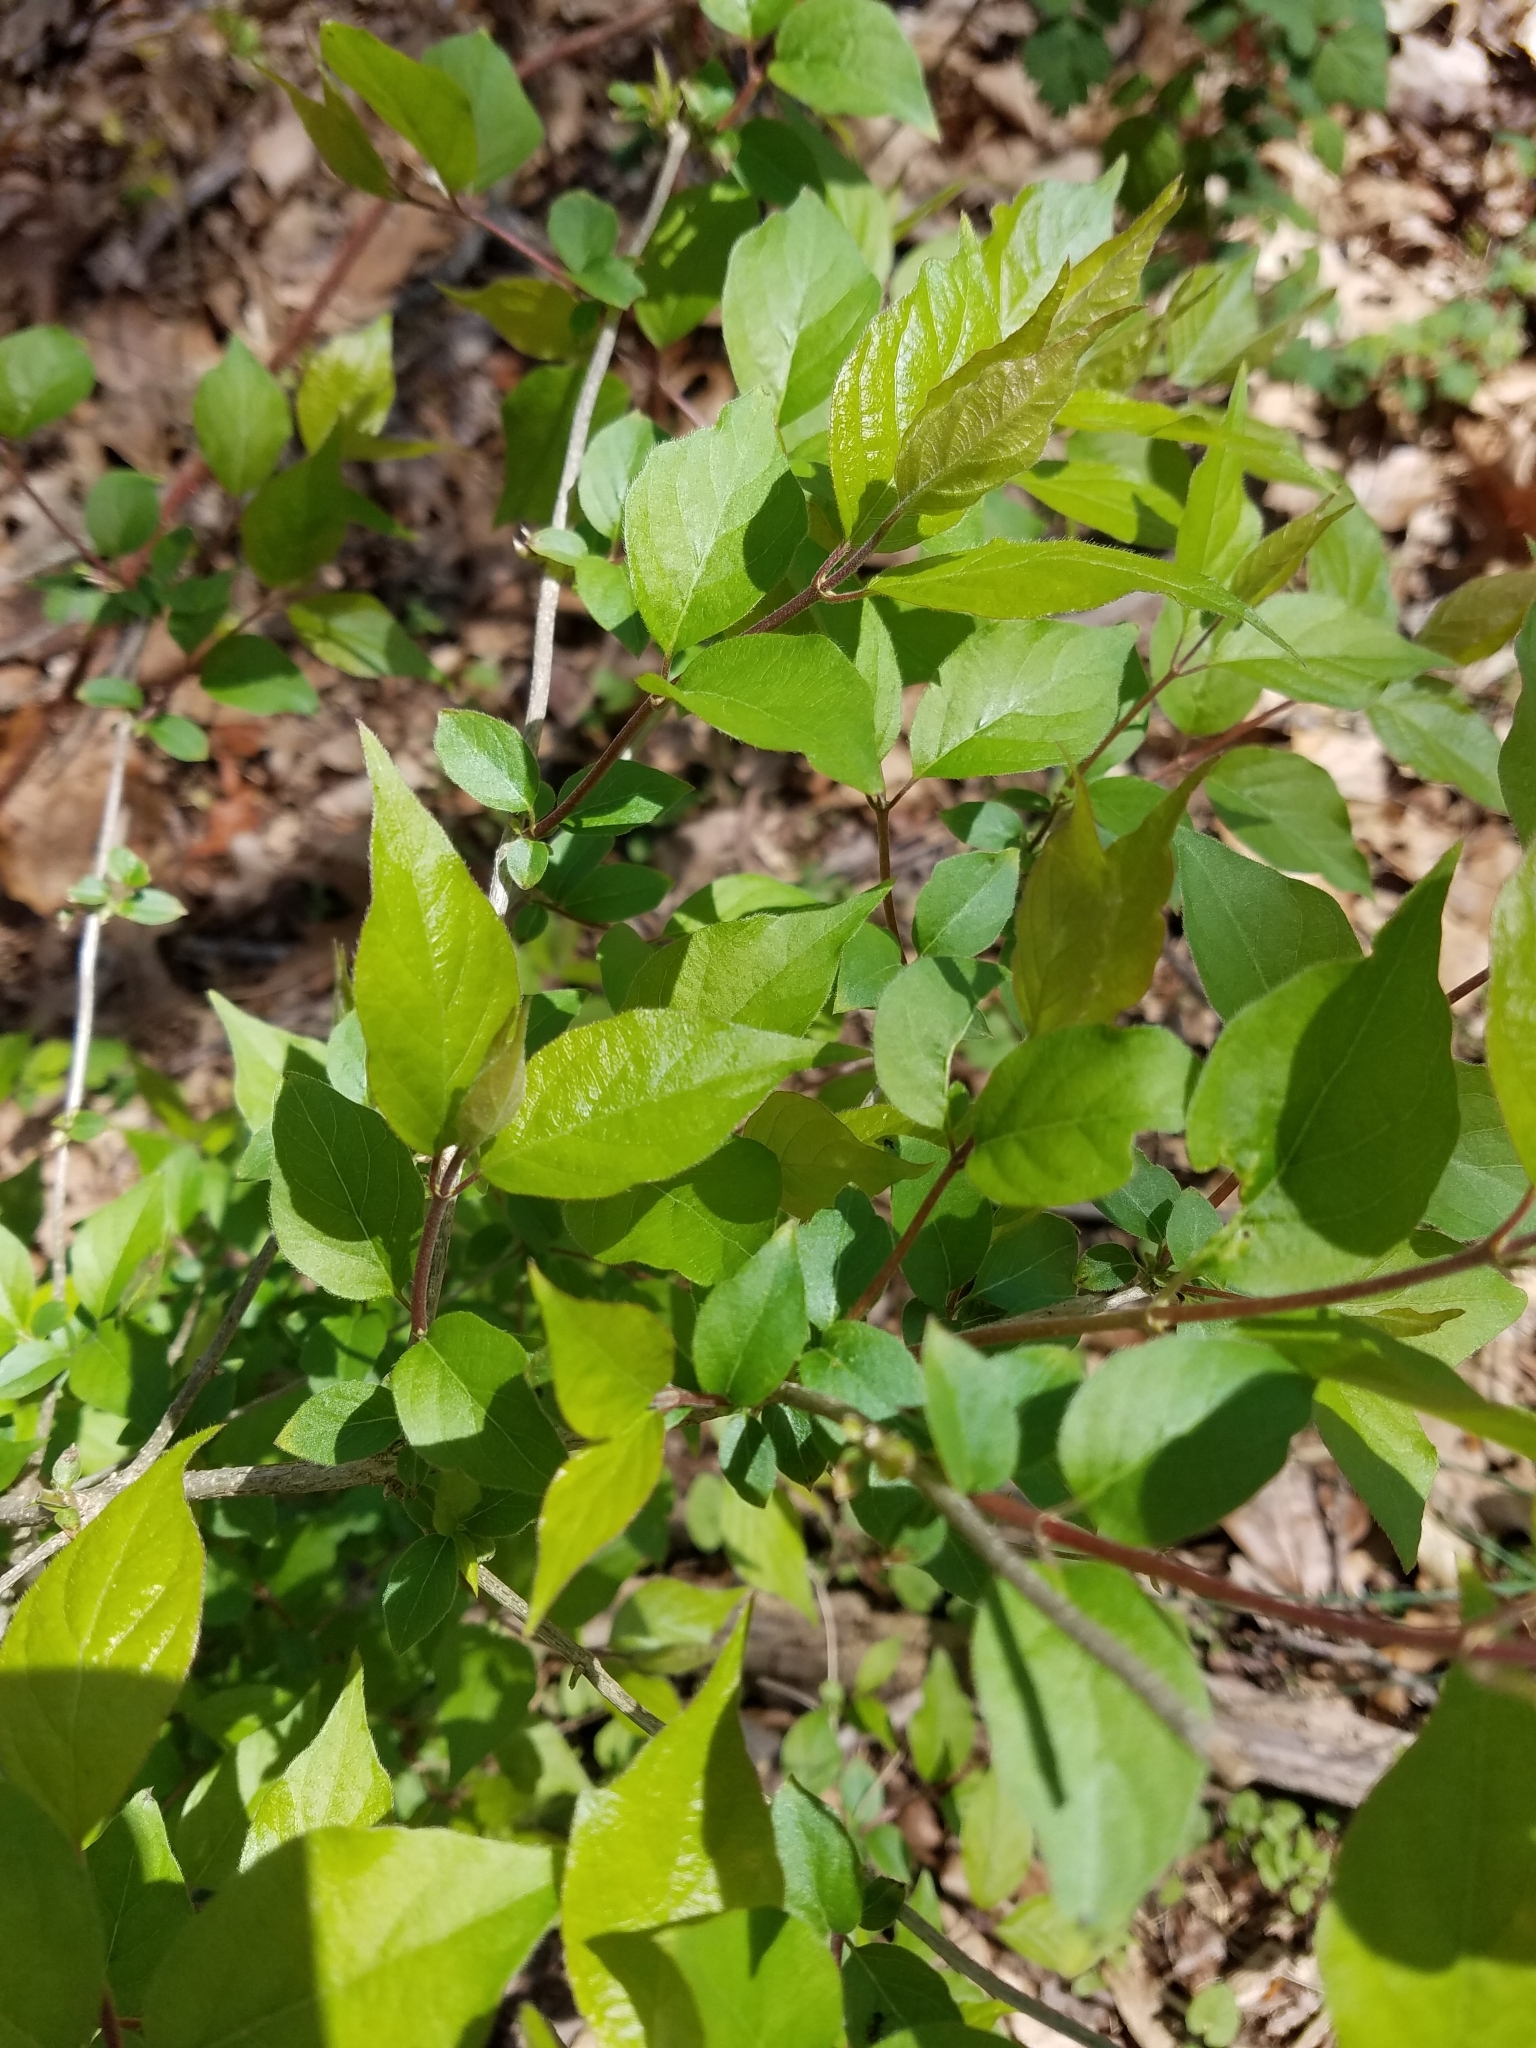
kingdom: Plantae
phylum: Tracheophyta
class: Magnoliopsida
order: Dipsacales
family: Caprifoliaceae
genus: Lonicera
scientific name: Lonicera maackii
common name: Amur honeysuckle
